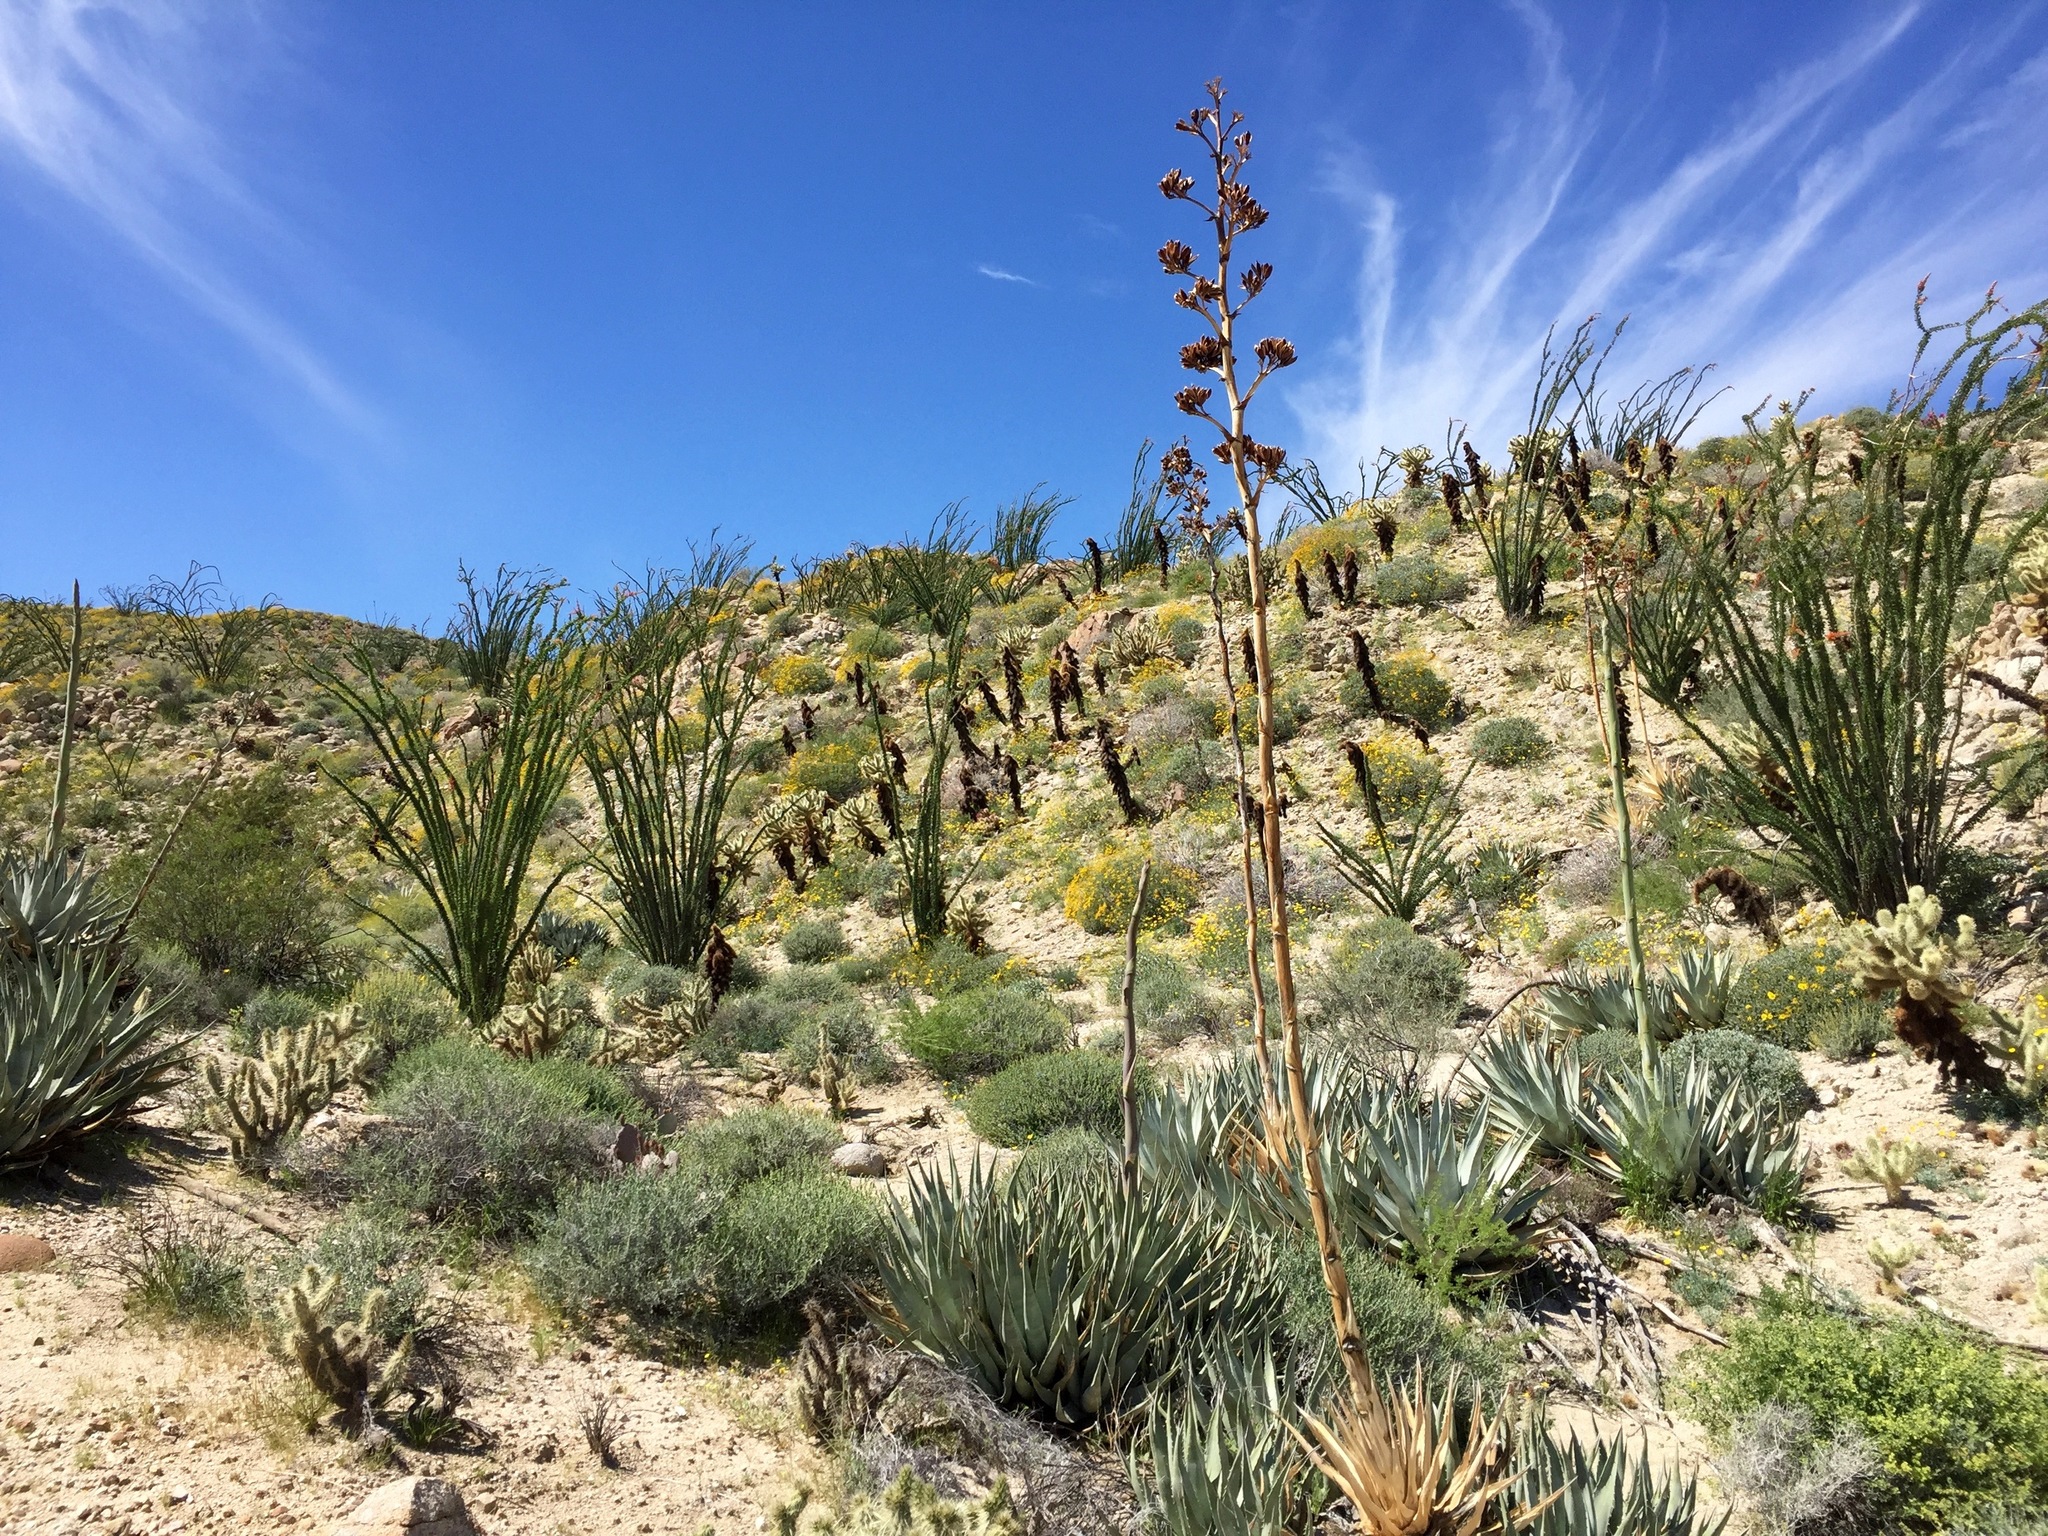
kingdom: Plantae
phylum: Tracheophyta
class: Magnoliopsida
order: Caryophyllales
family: Cactaceae
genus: Cylindropuntia
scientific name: Cylindropuntia fosbergii
